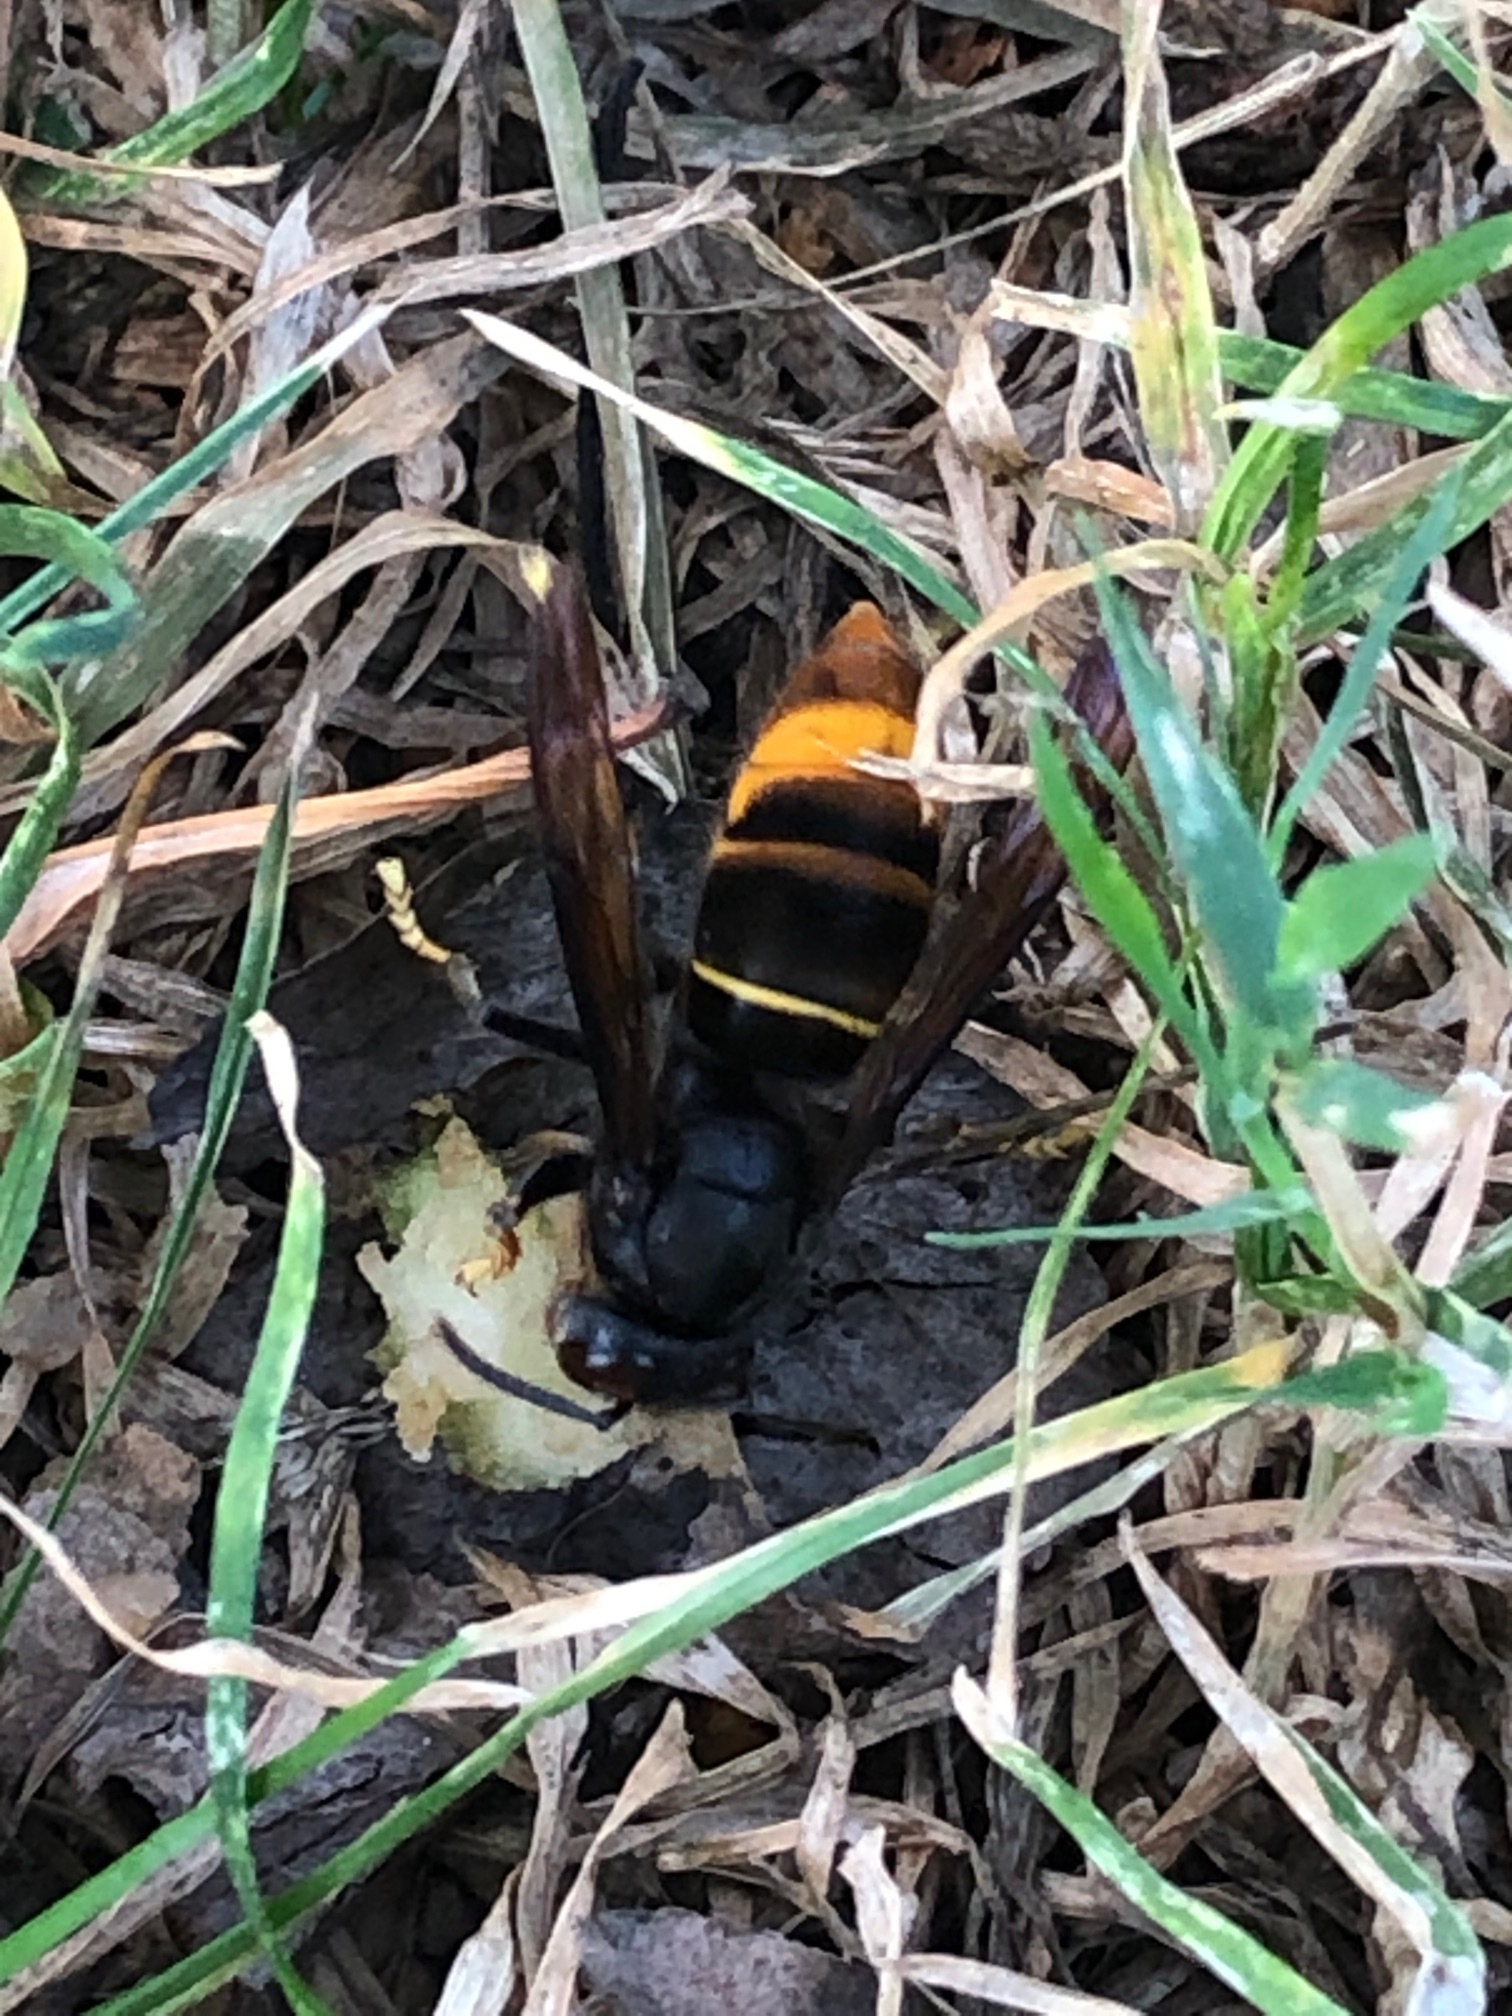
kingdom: Animalia
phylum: Arthropoda
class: Insecta
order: Hymenoptera
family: Vespidae
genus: Vespa
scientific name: Vespa velutina
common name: Asian hornet
